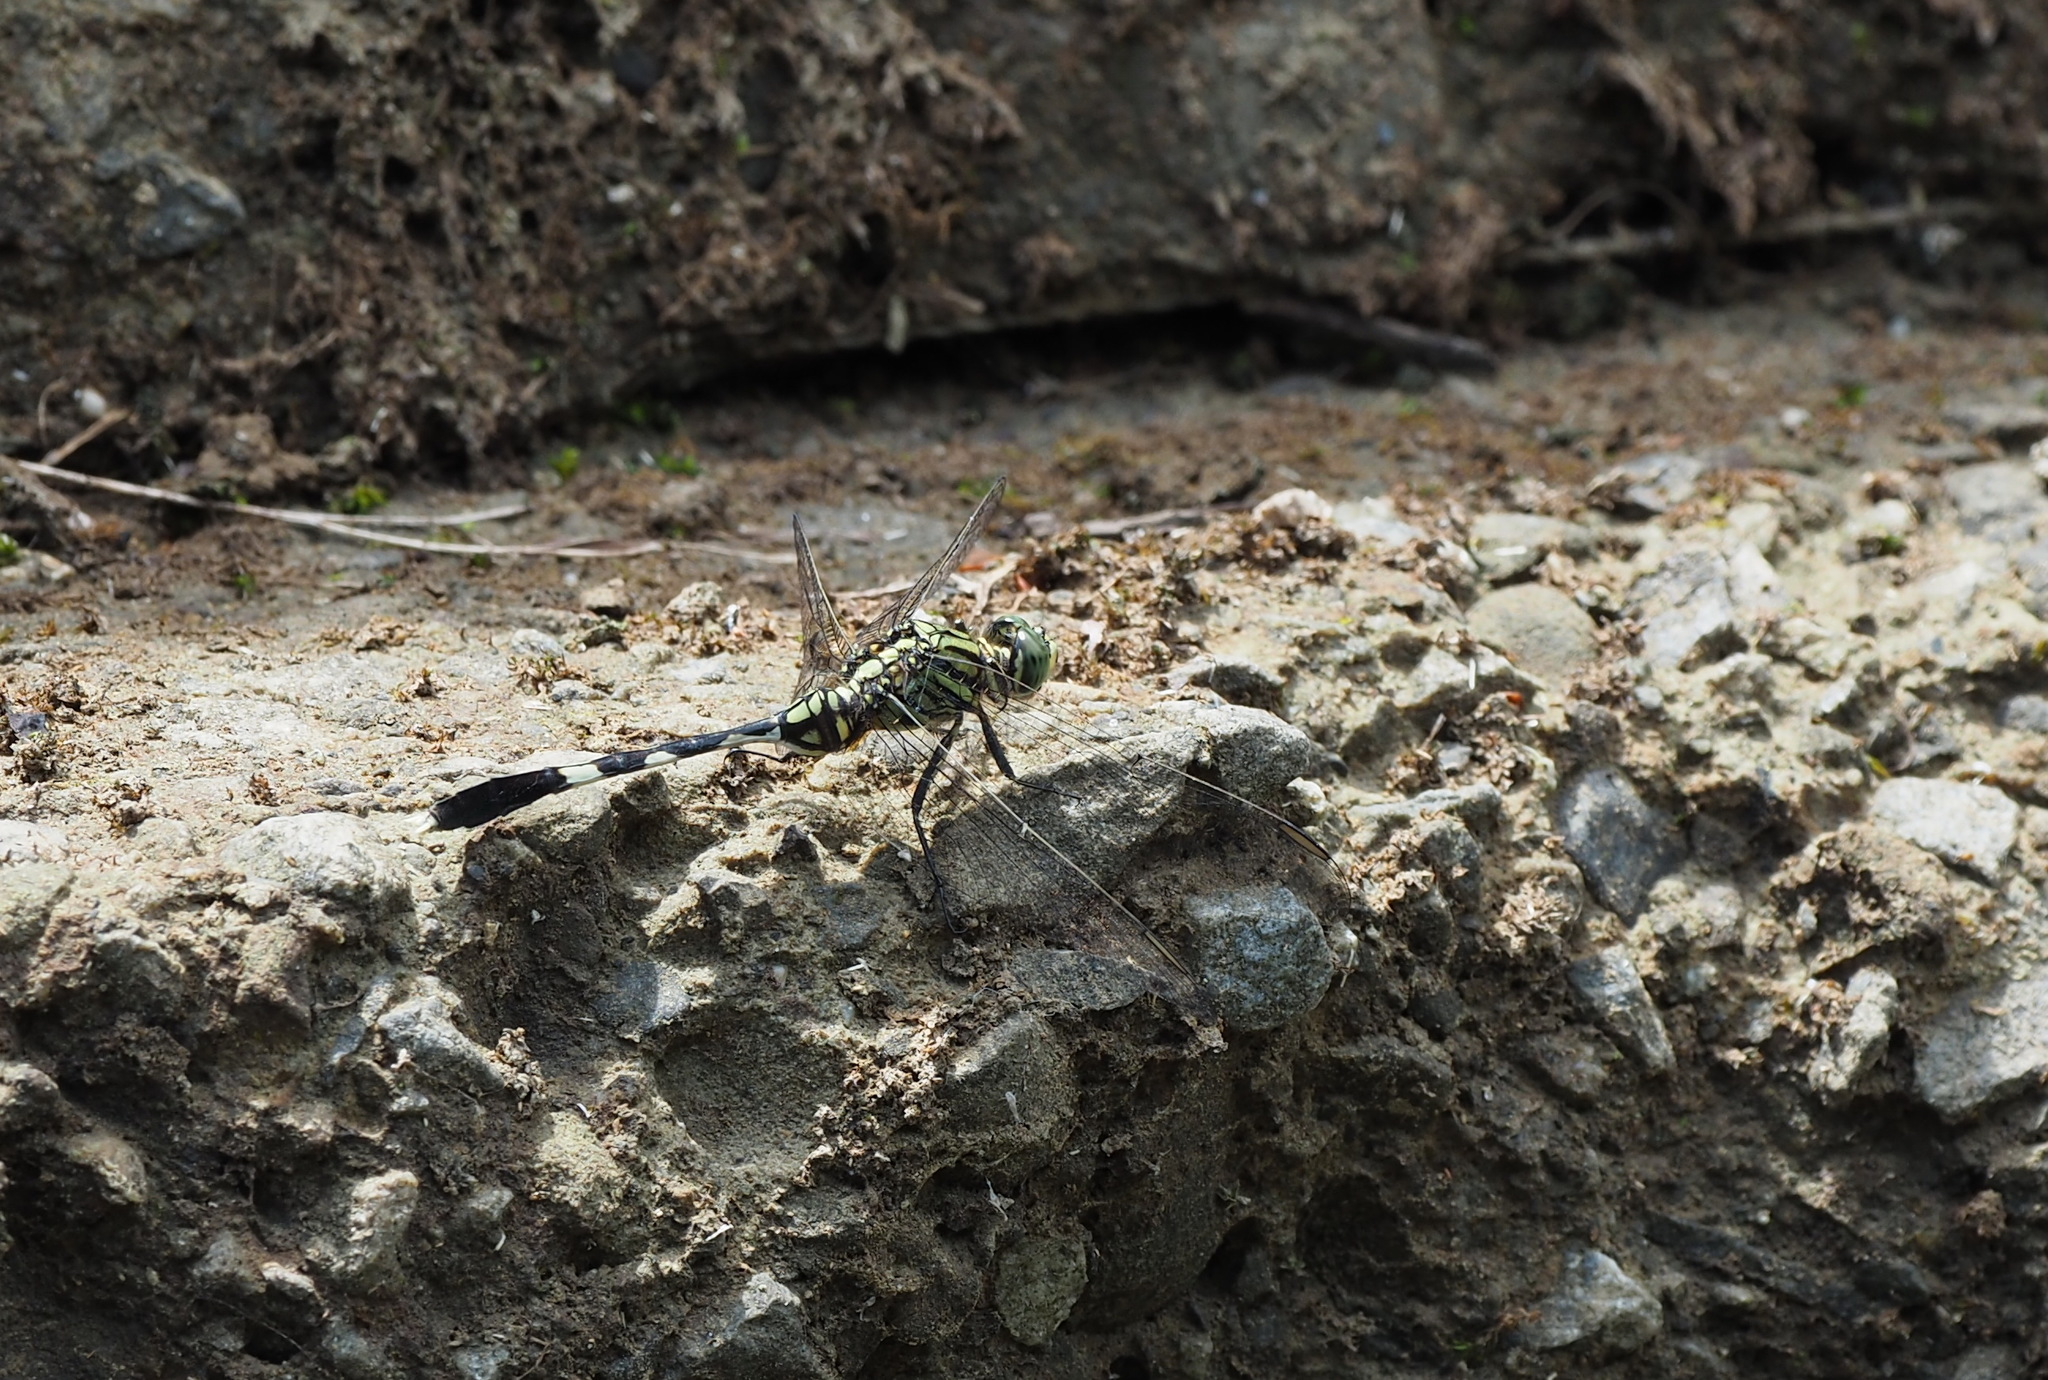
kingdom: Animalia
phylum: Arthropoda
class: Insecta
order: Odonata
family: Libellulidae
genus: Orthetrum
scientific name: Orthetrum sabina
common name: Slender skimmer
